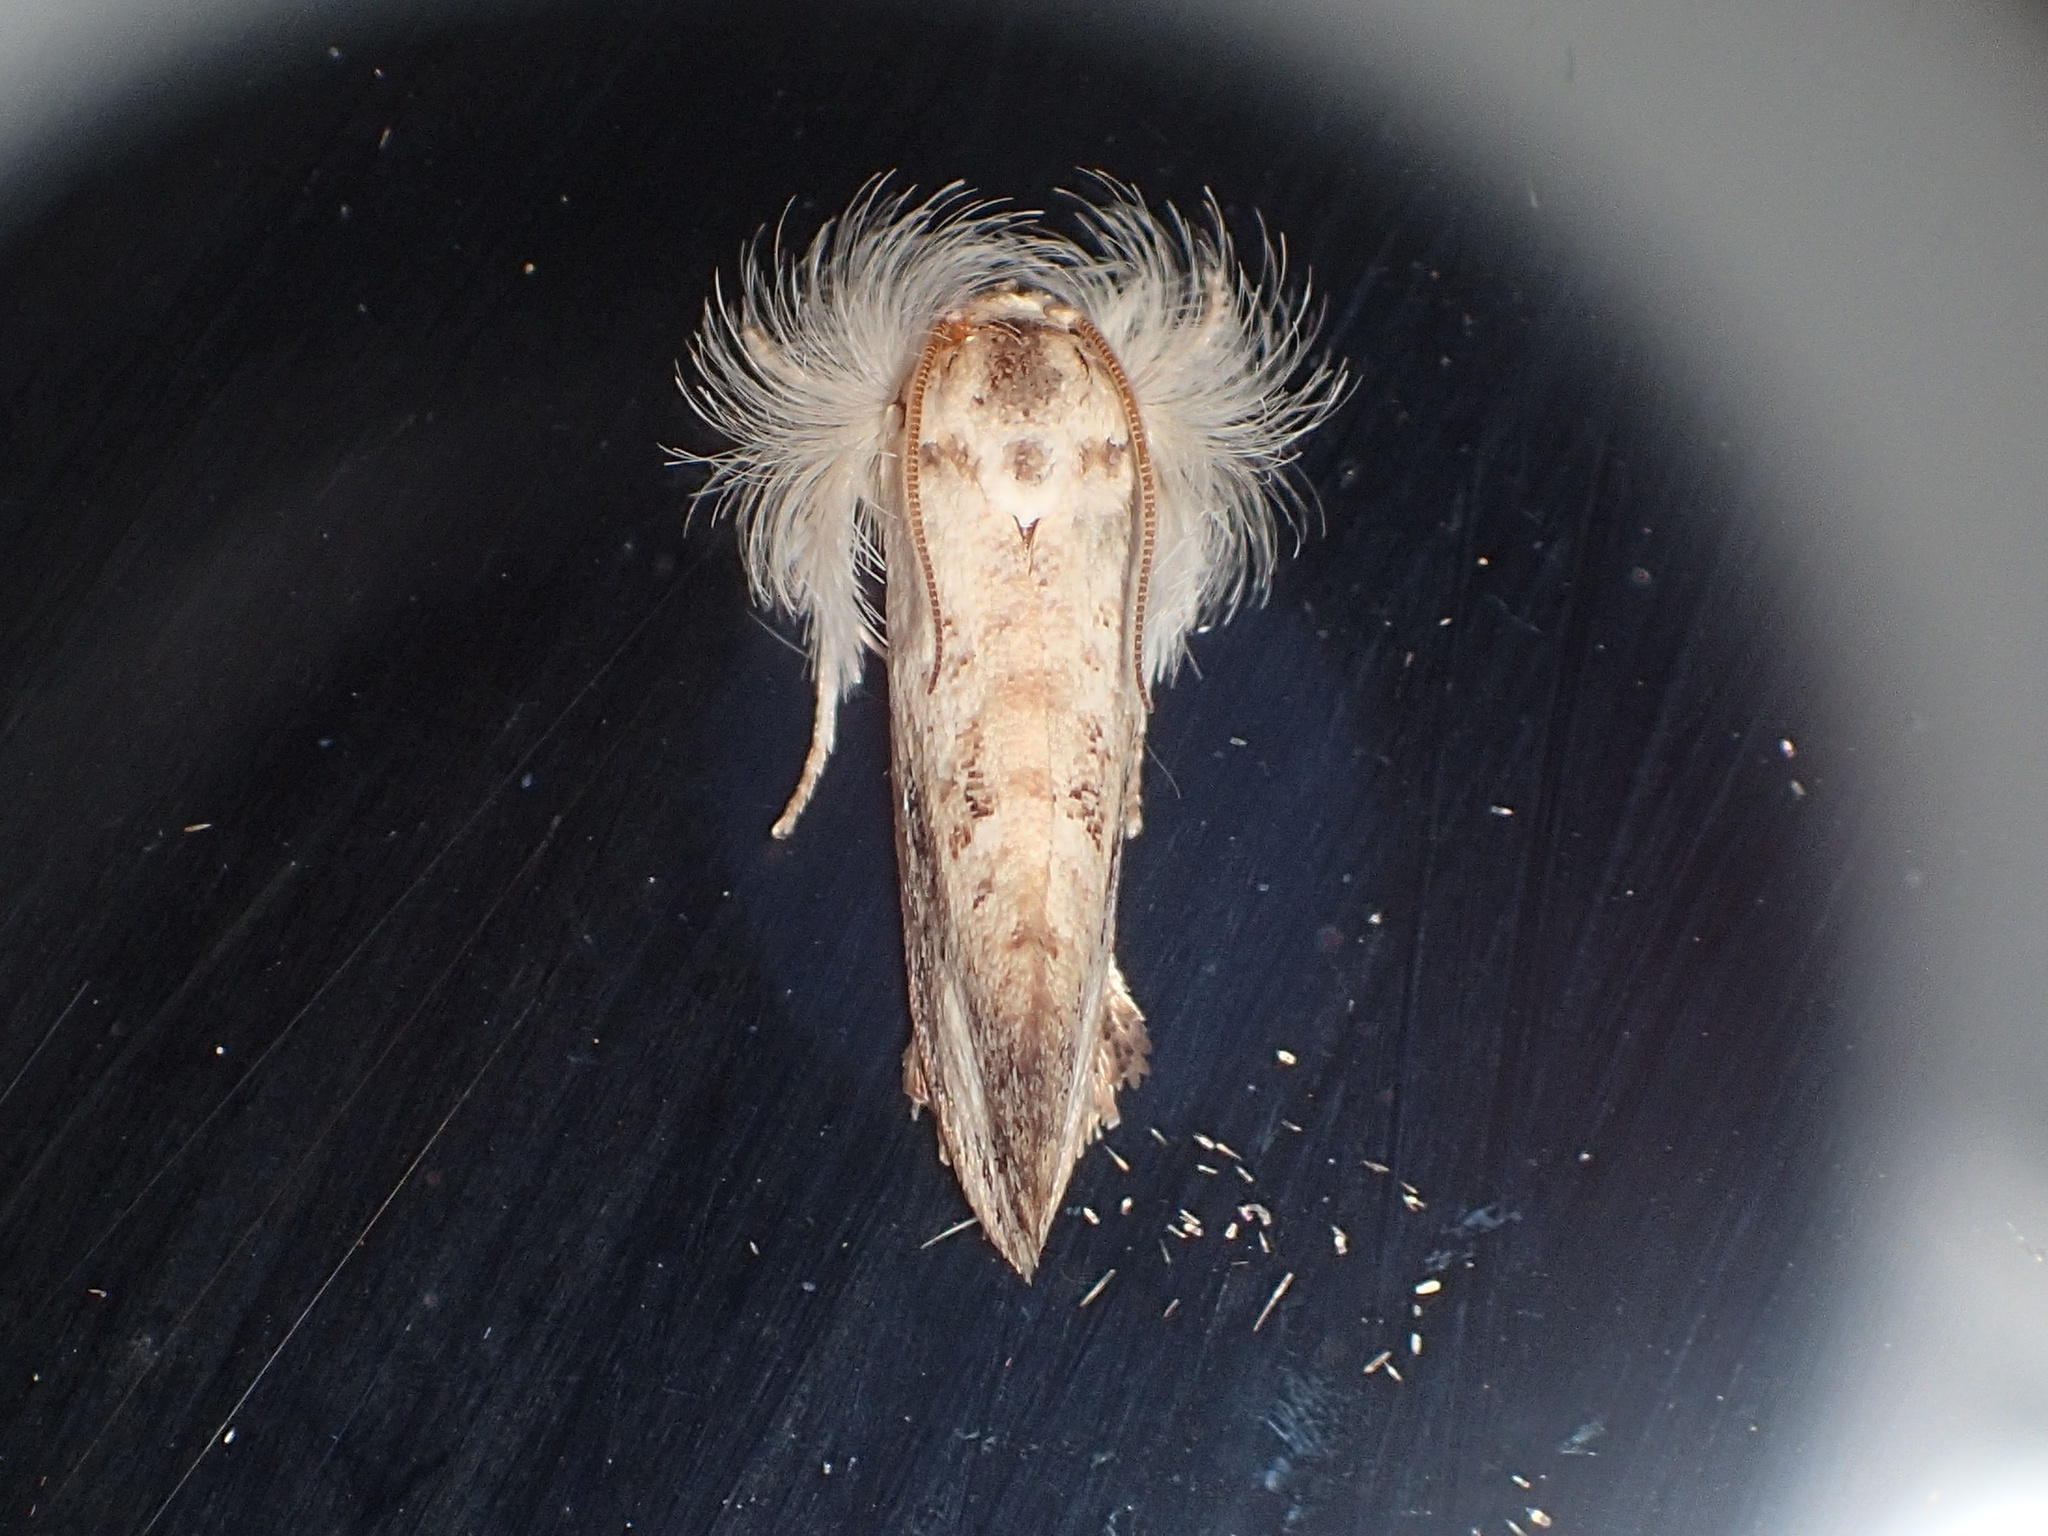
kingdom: Animalia
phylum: Arthropoda
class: Insecta
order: Lepidoptera
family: Tineidae
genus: Acrolophus
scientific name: Acrolophus mycetophagus
